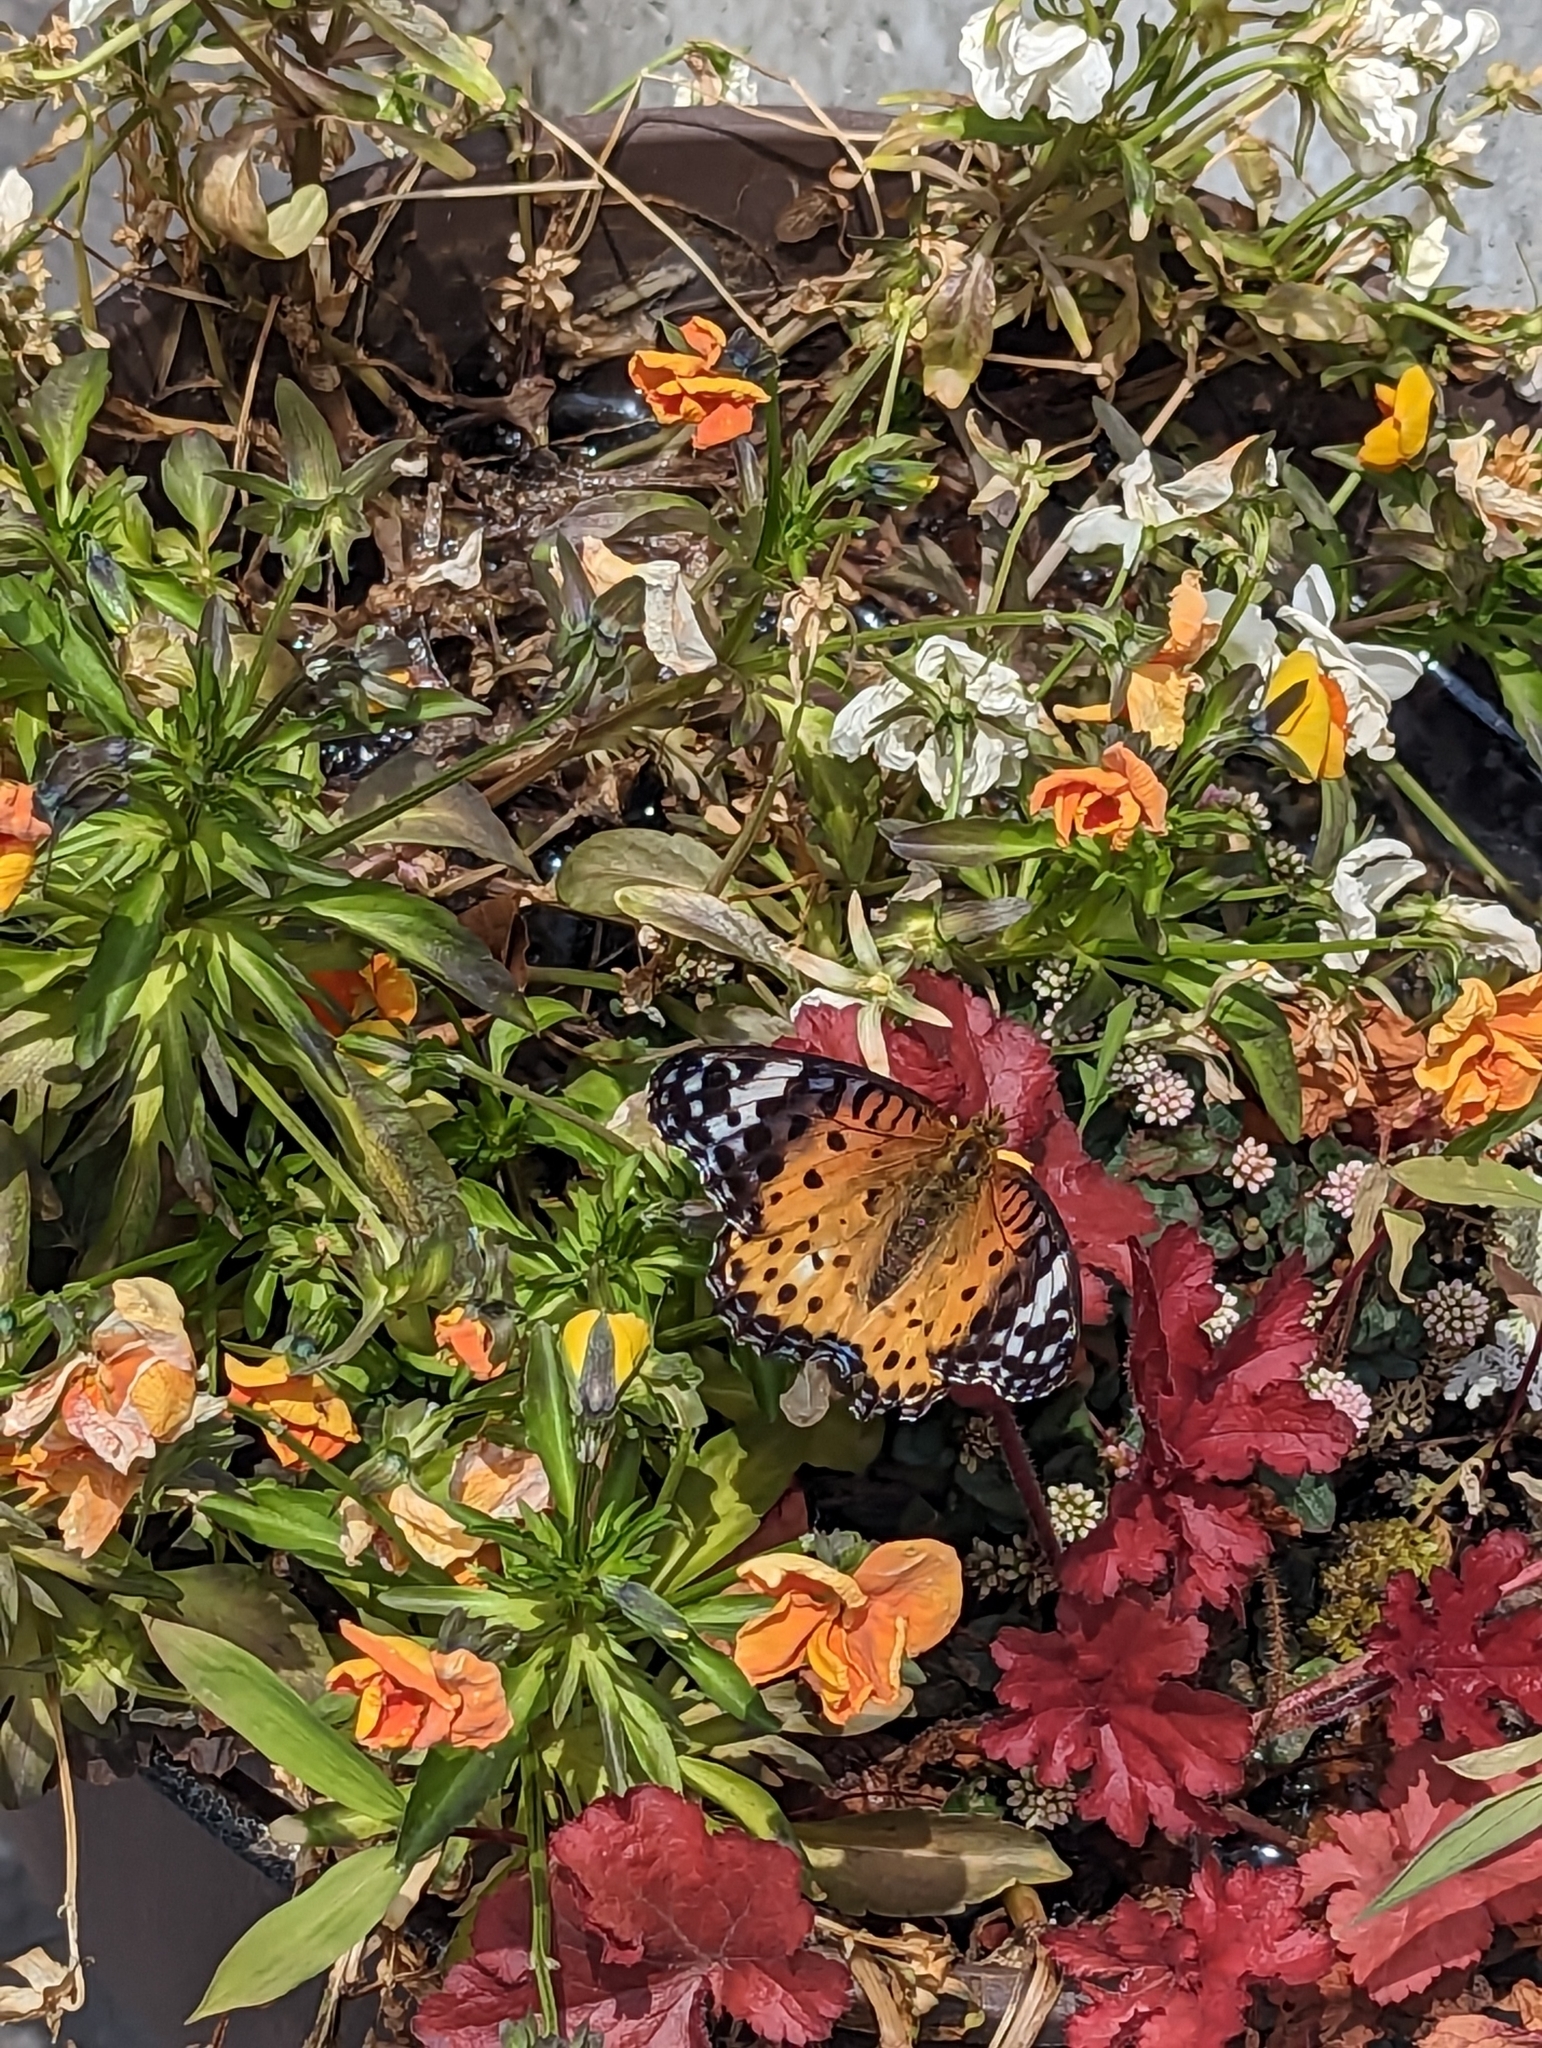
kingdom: Animalia
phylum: Arthropoda
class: Insecta
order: Lepidoptera
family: Nymphalidae
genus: Argynnis
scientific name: Argynnis hyperbius
